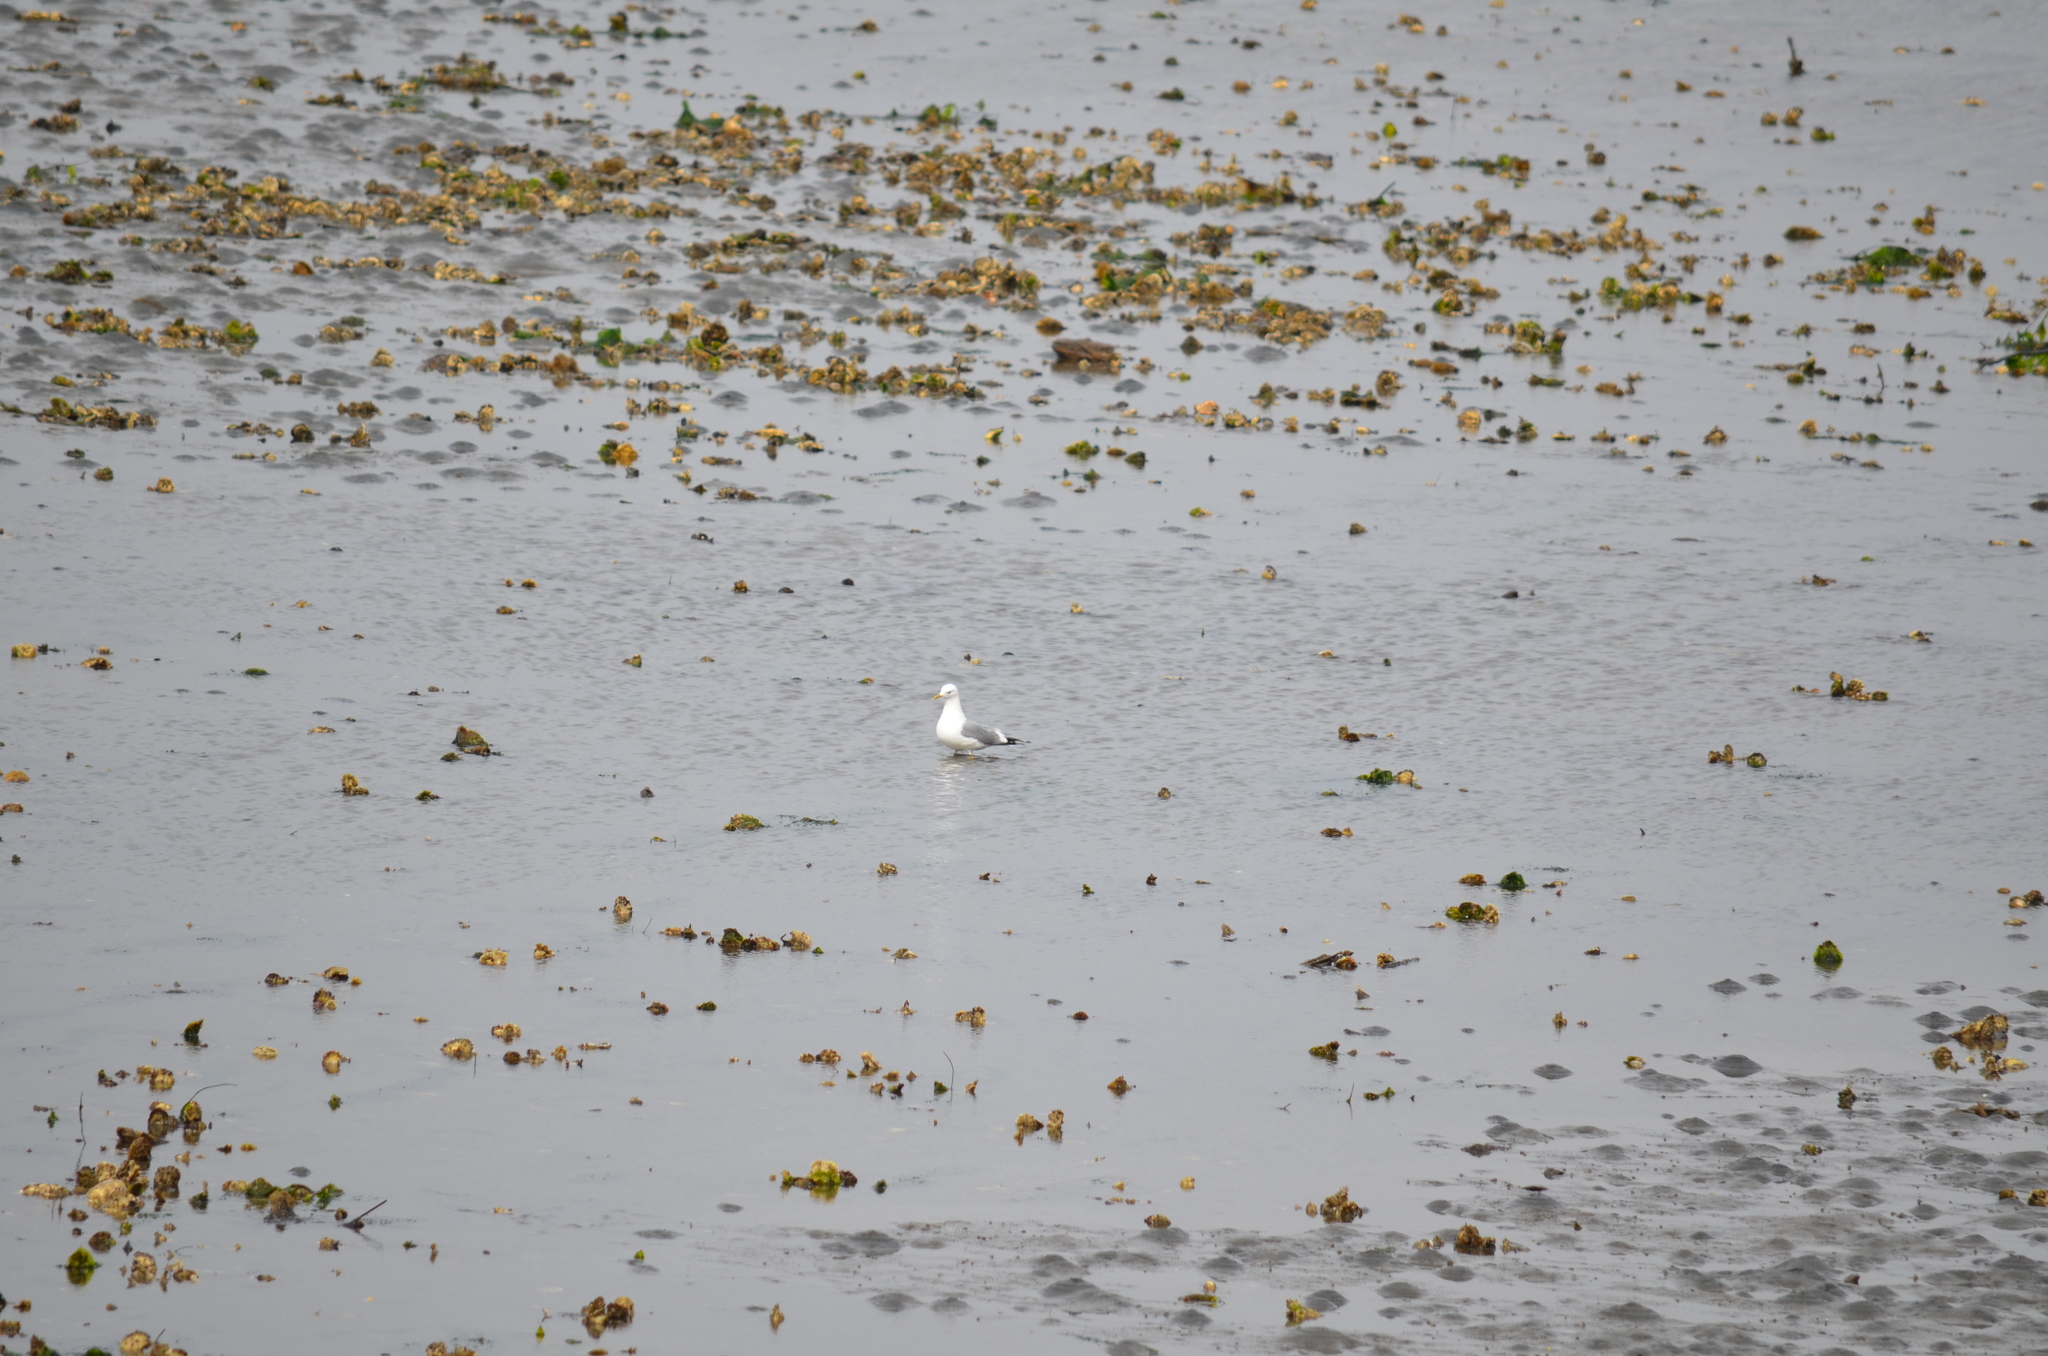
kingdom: Animalia
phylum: Chordata
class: Aves
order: Charadriiformes
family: Laridae
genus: Larus
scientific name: Larus brachyrhynchus
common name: Short-billed gull
